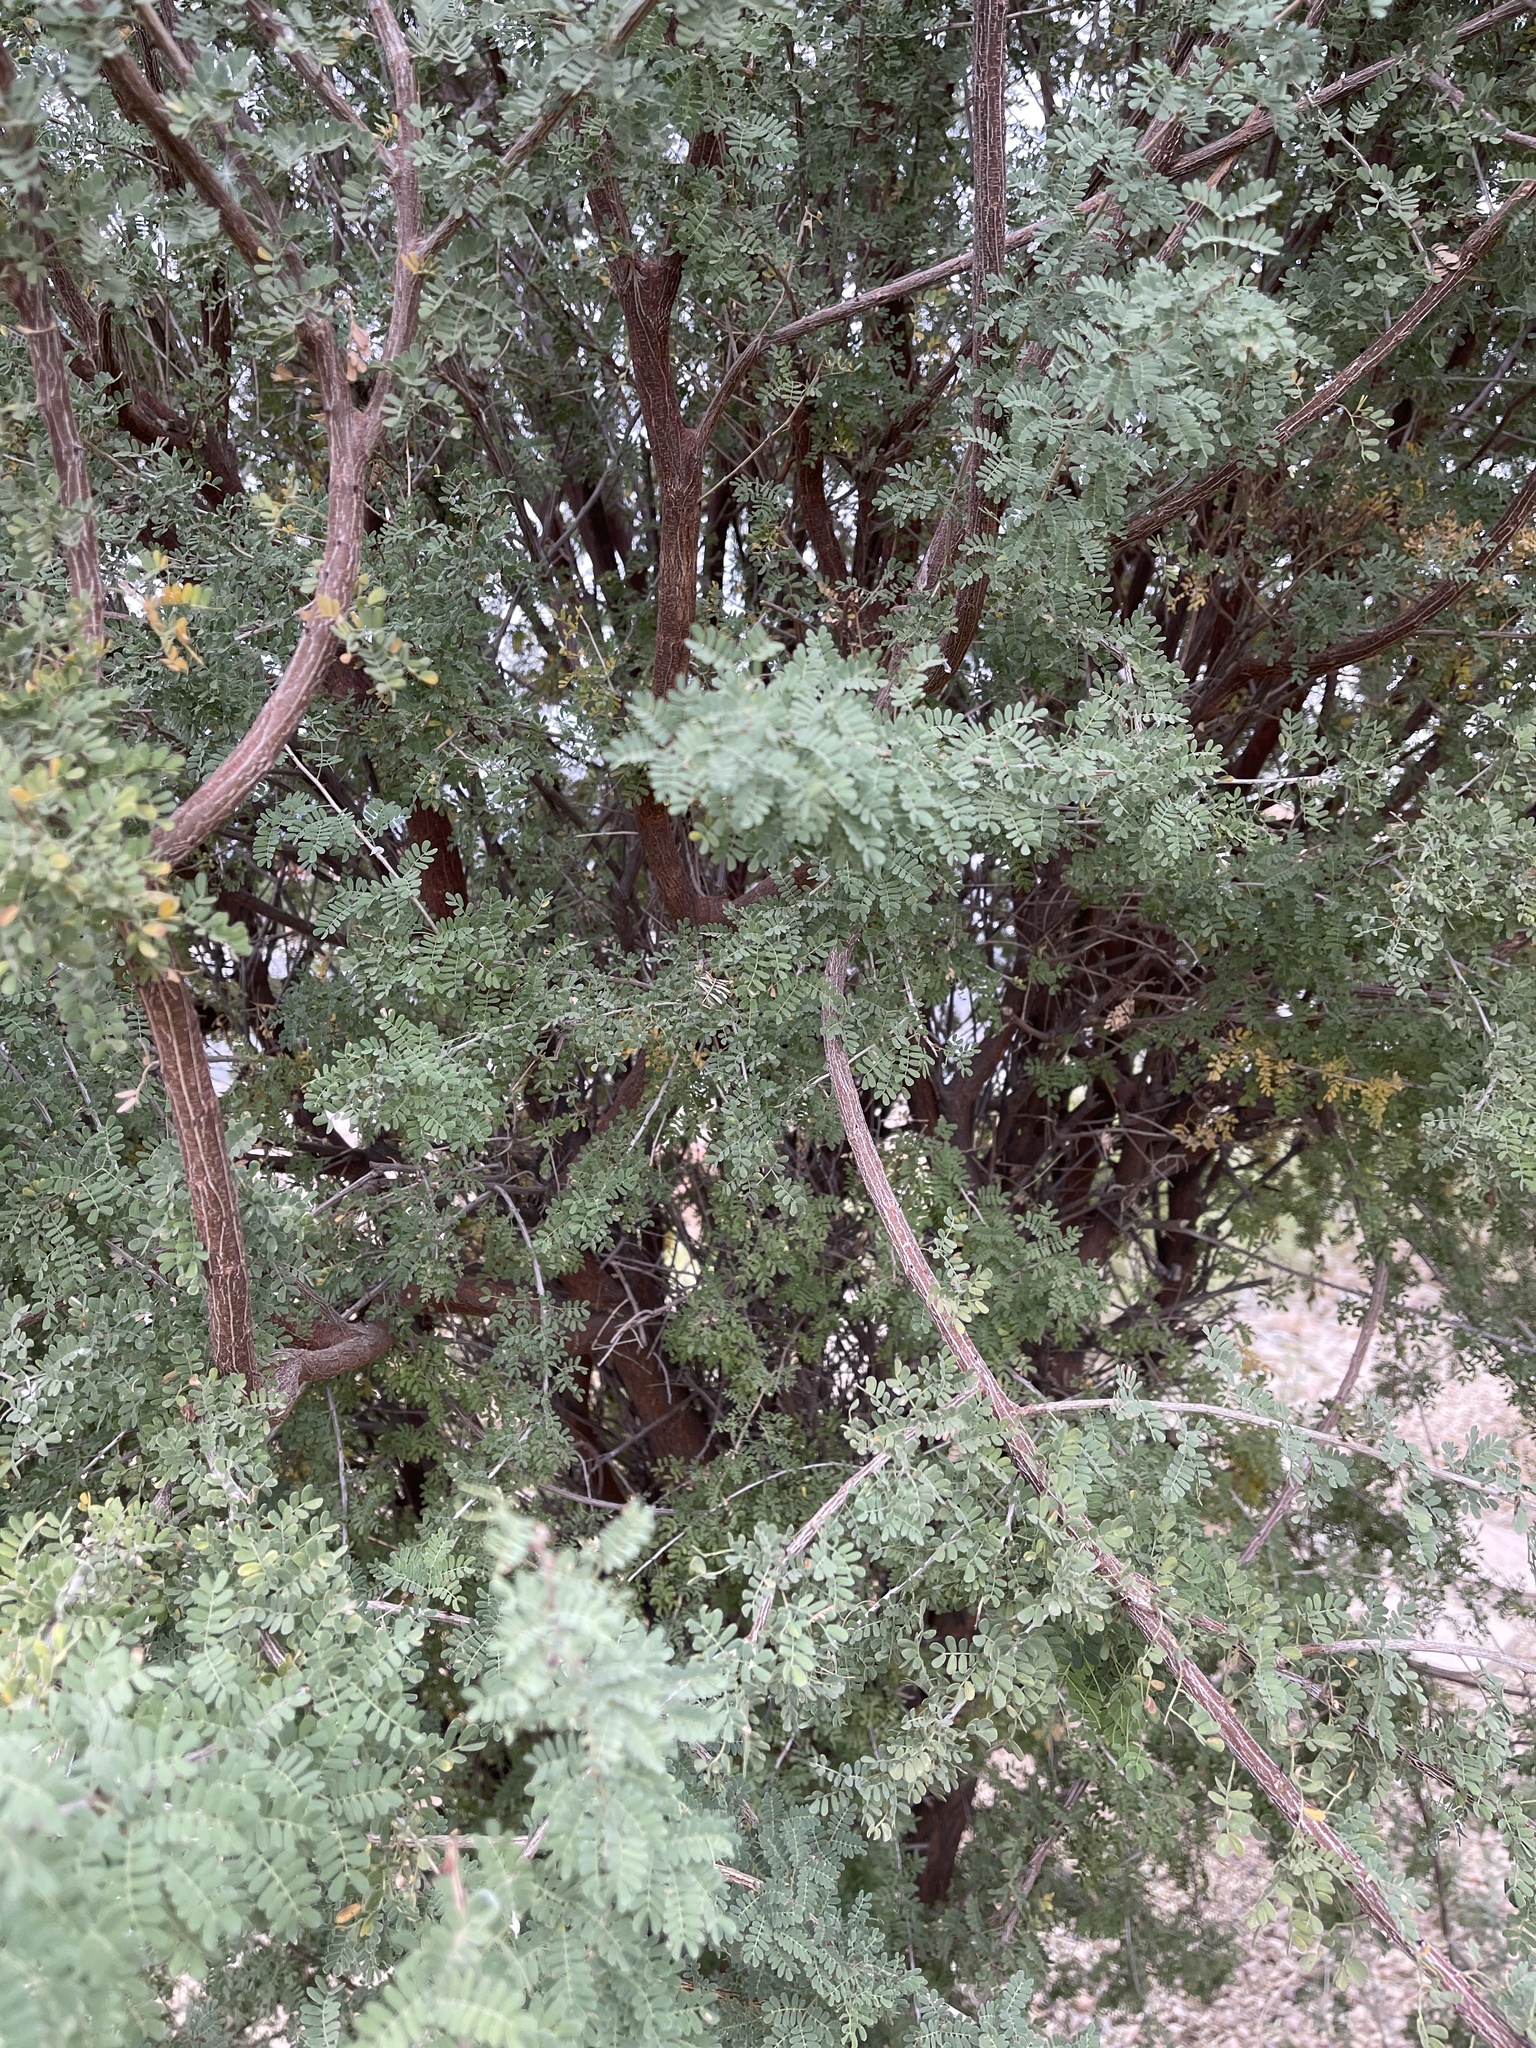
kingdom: Plantae
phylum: Tracheophyta
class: Magnoliopsida
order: Fabales
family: Fabaceae
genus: Senegalia
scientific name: Senegalia greggii
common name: Texas-mimosa
